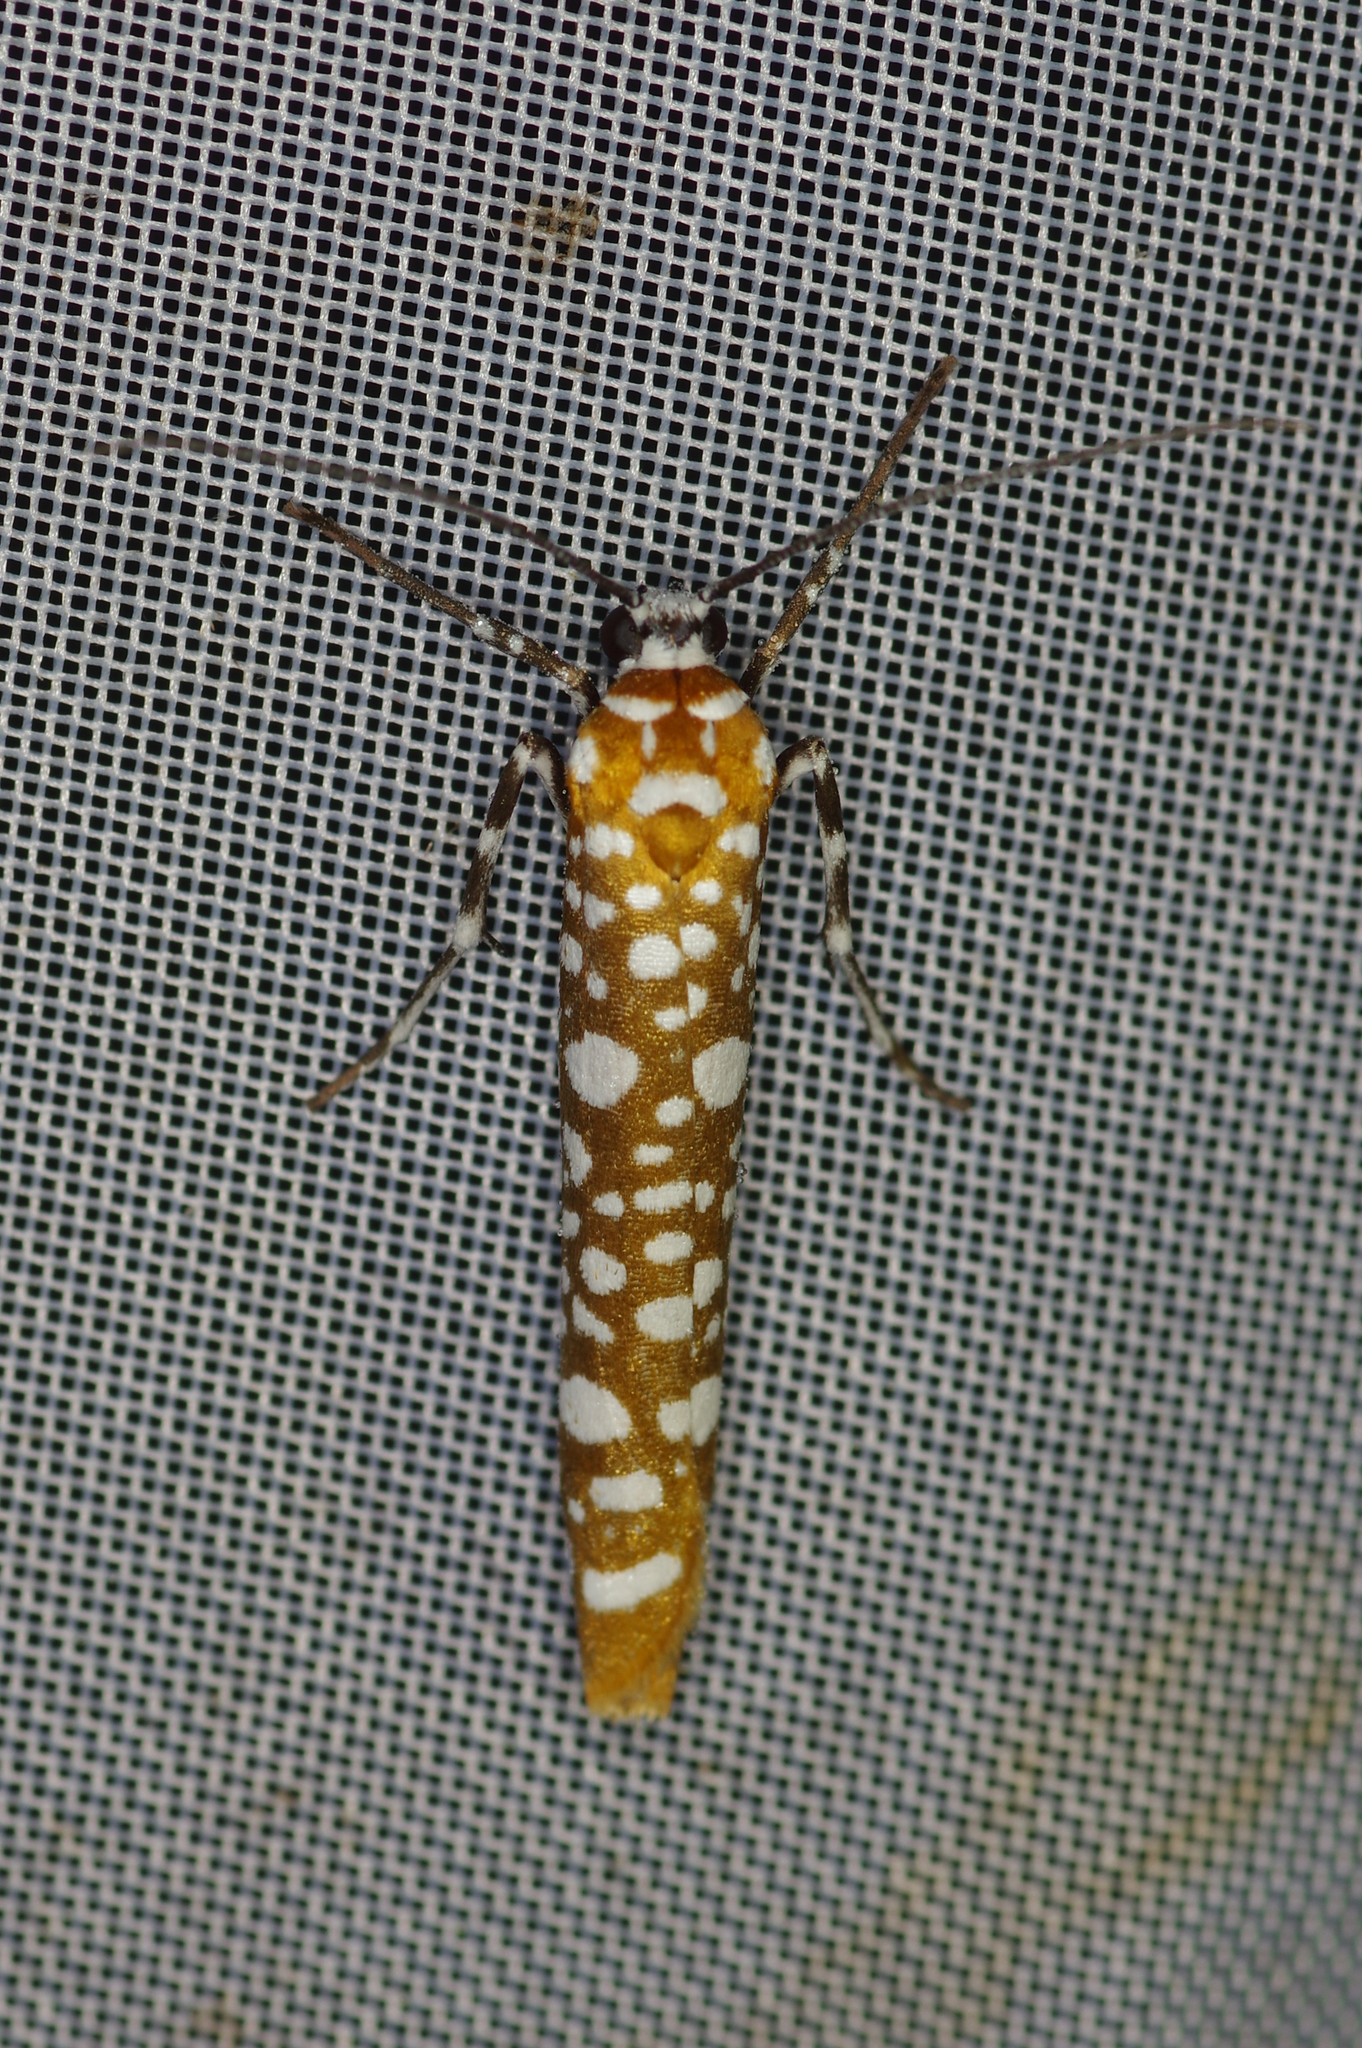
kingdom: Animalia
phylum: Arthropoda
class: Insecta
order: Lepidoptera
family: Attevidae
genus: Atteva
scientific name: Atteva sphaerotrocha
